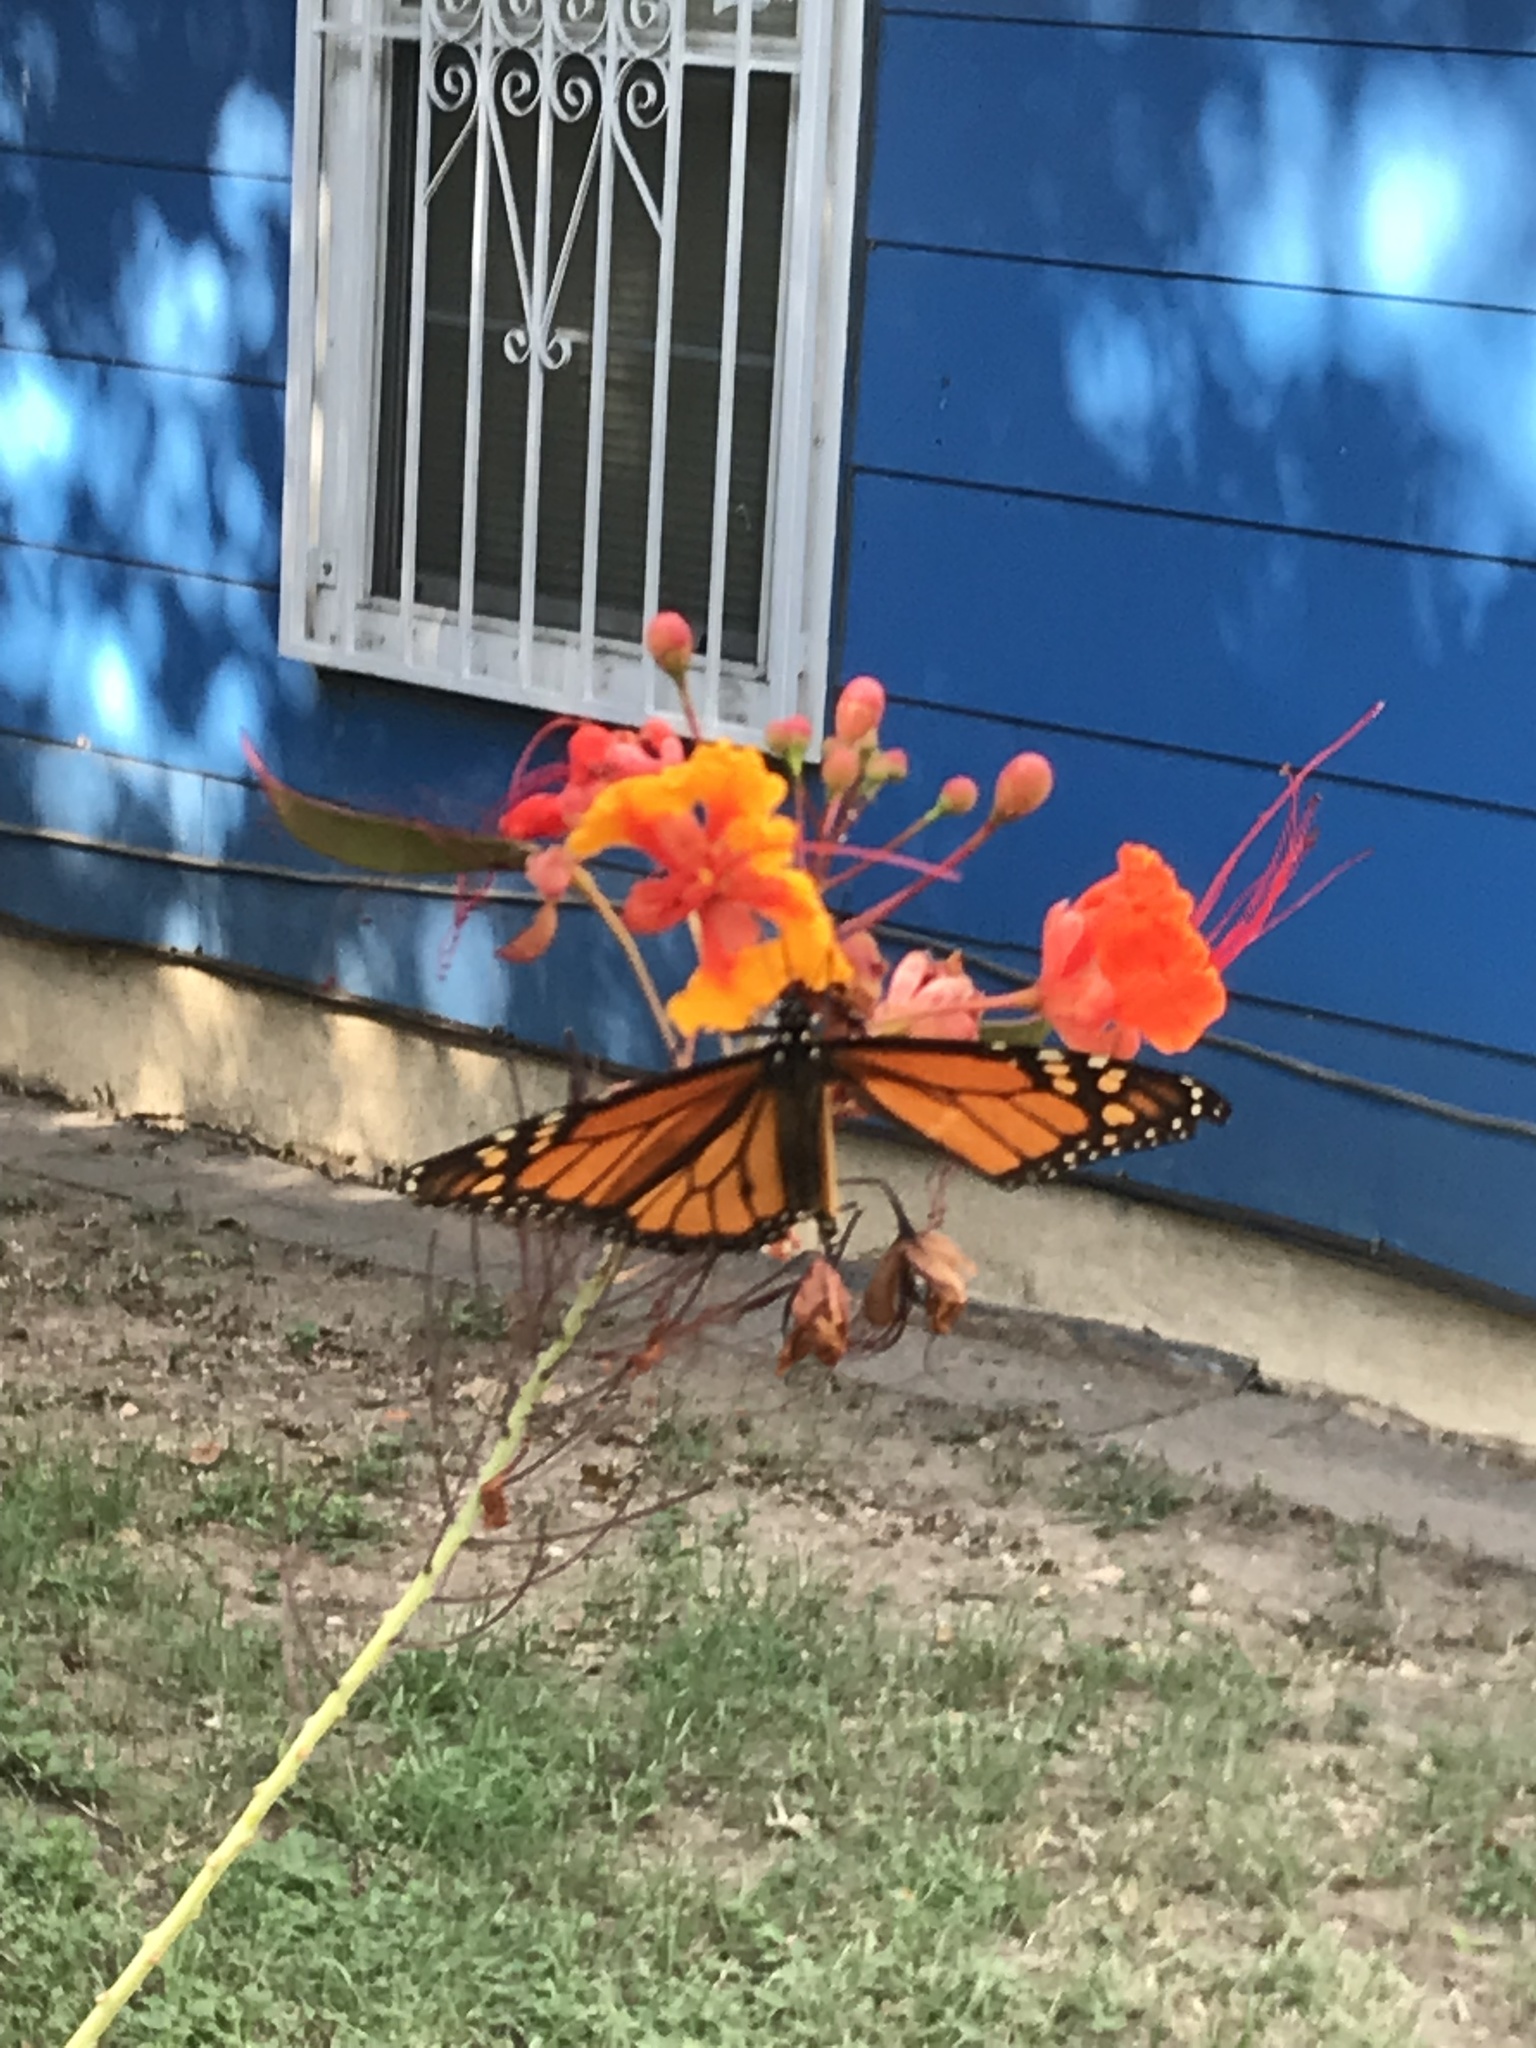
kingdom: Animalia
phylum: Arthropoda
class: Insecta
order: Lepidoptera
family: Nymphalidae
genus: Danaus
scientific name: Danaus plexippus
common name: Monarch
